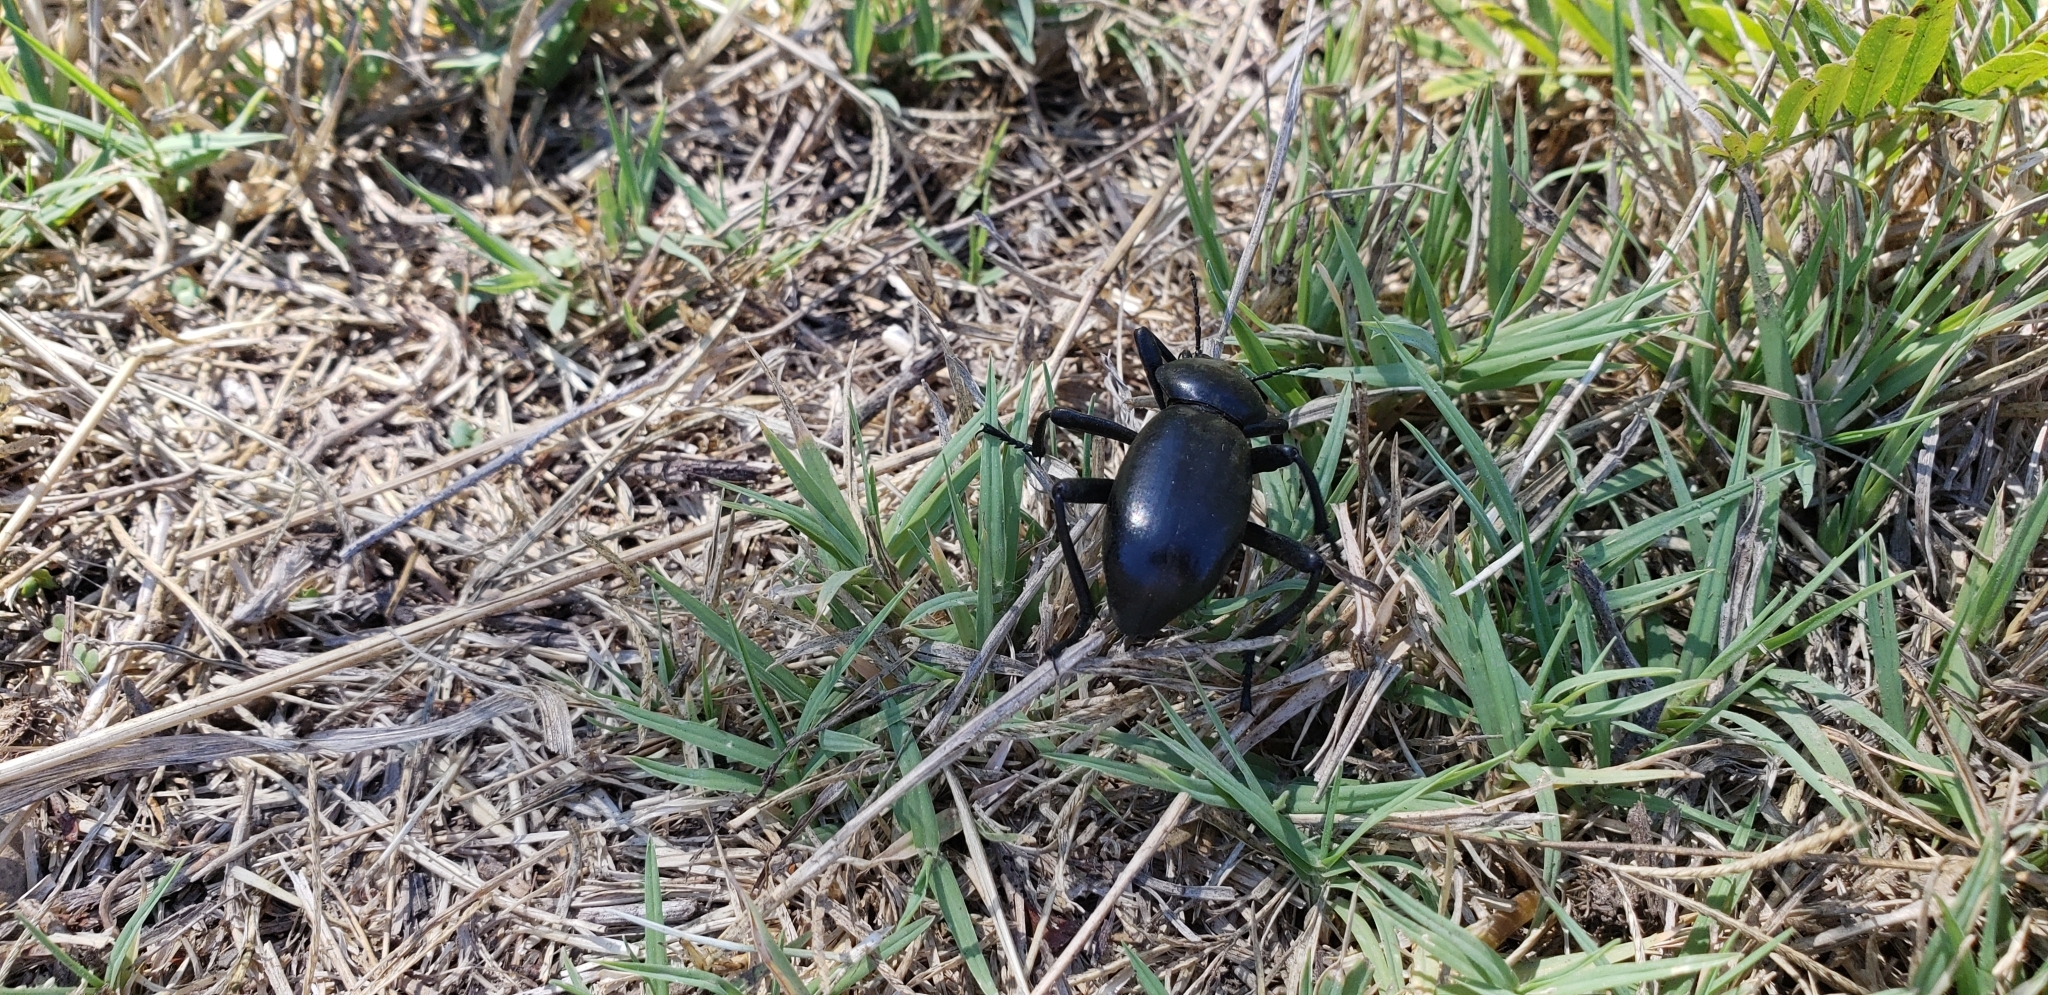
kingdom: Animalia
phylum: Arthropoda
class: Insecta
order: Coleoptera
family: Tenebrionidae
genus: Eleodes
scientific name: Eleodes grandicollis
